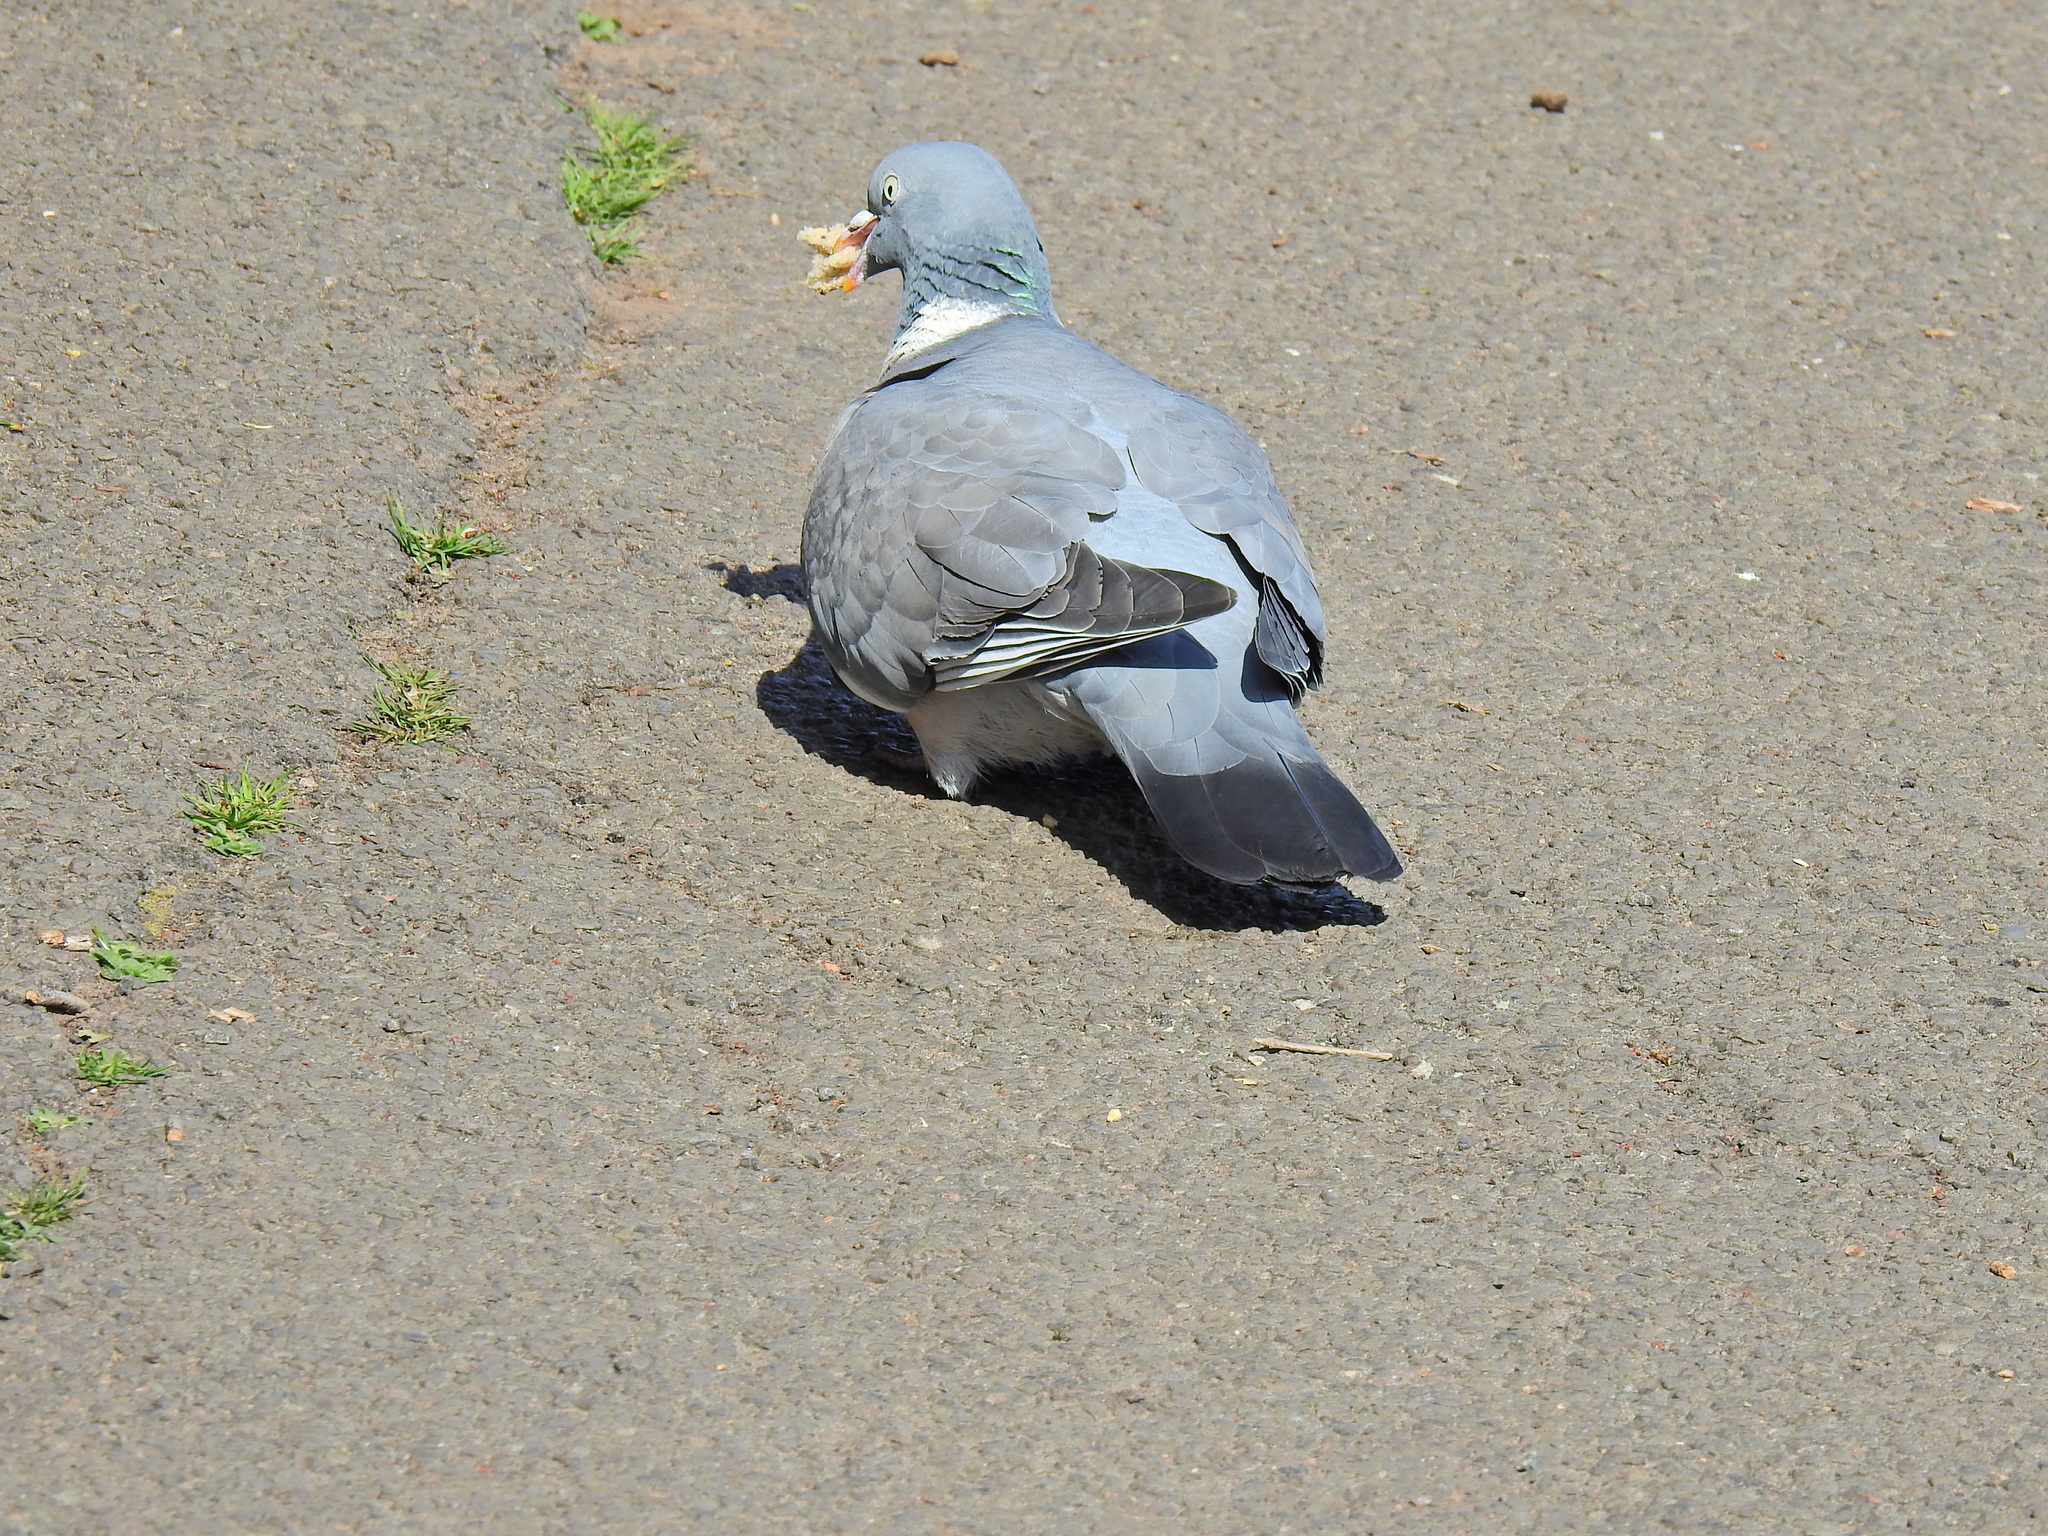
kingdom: Animalia
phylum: Chordata
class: Aves
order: Columbiformes
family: Columbidae
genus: Columba
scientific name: Columba palumbus
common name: Common wood pigeon
